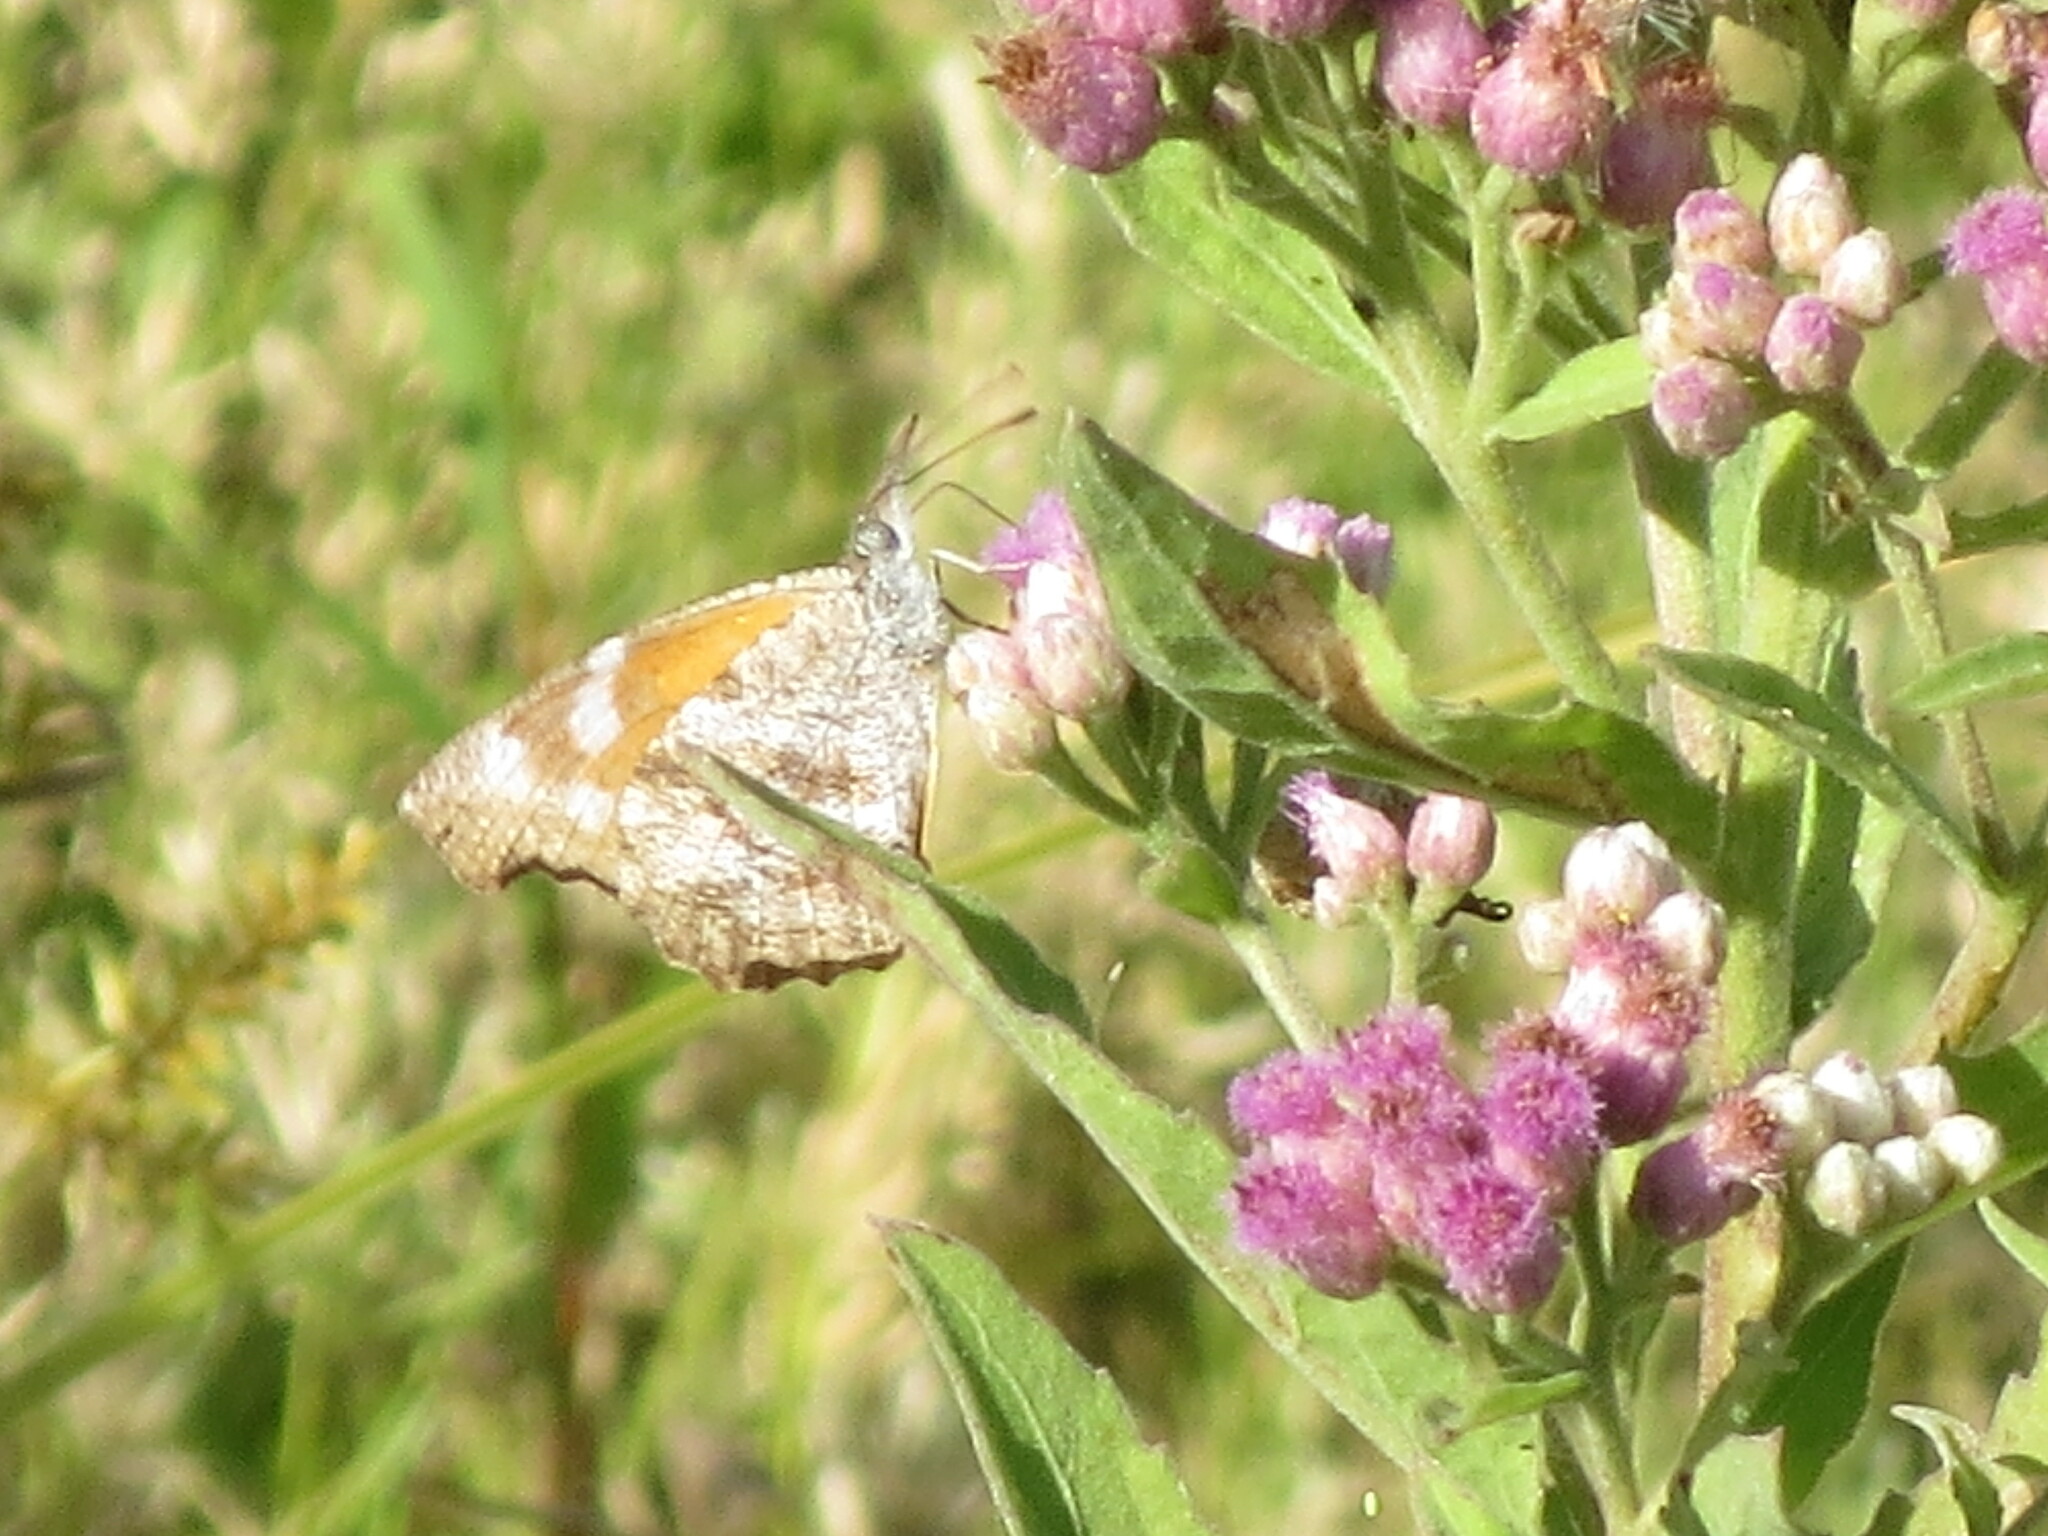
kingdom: Animalia
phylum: Arthropoda
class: Insecta
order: Lepidoptera
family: Nymphalidae
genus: Libytheana
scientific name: Libytheana carinenta
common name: American snout
